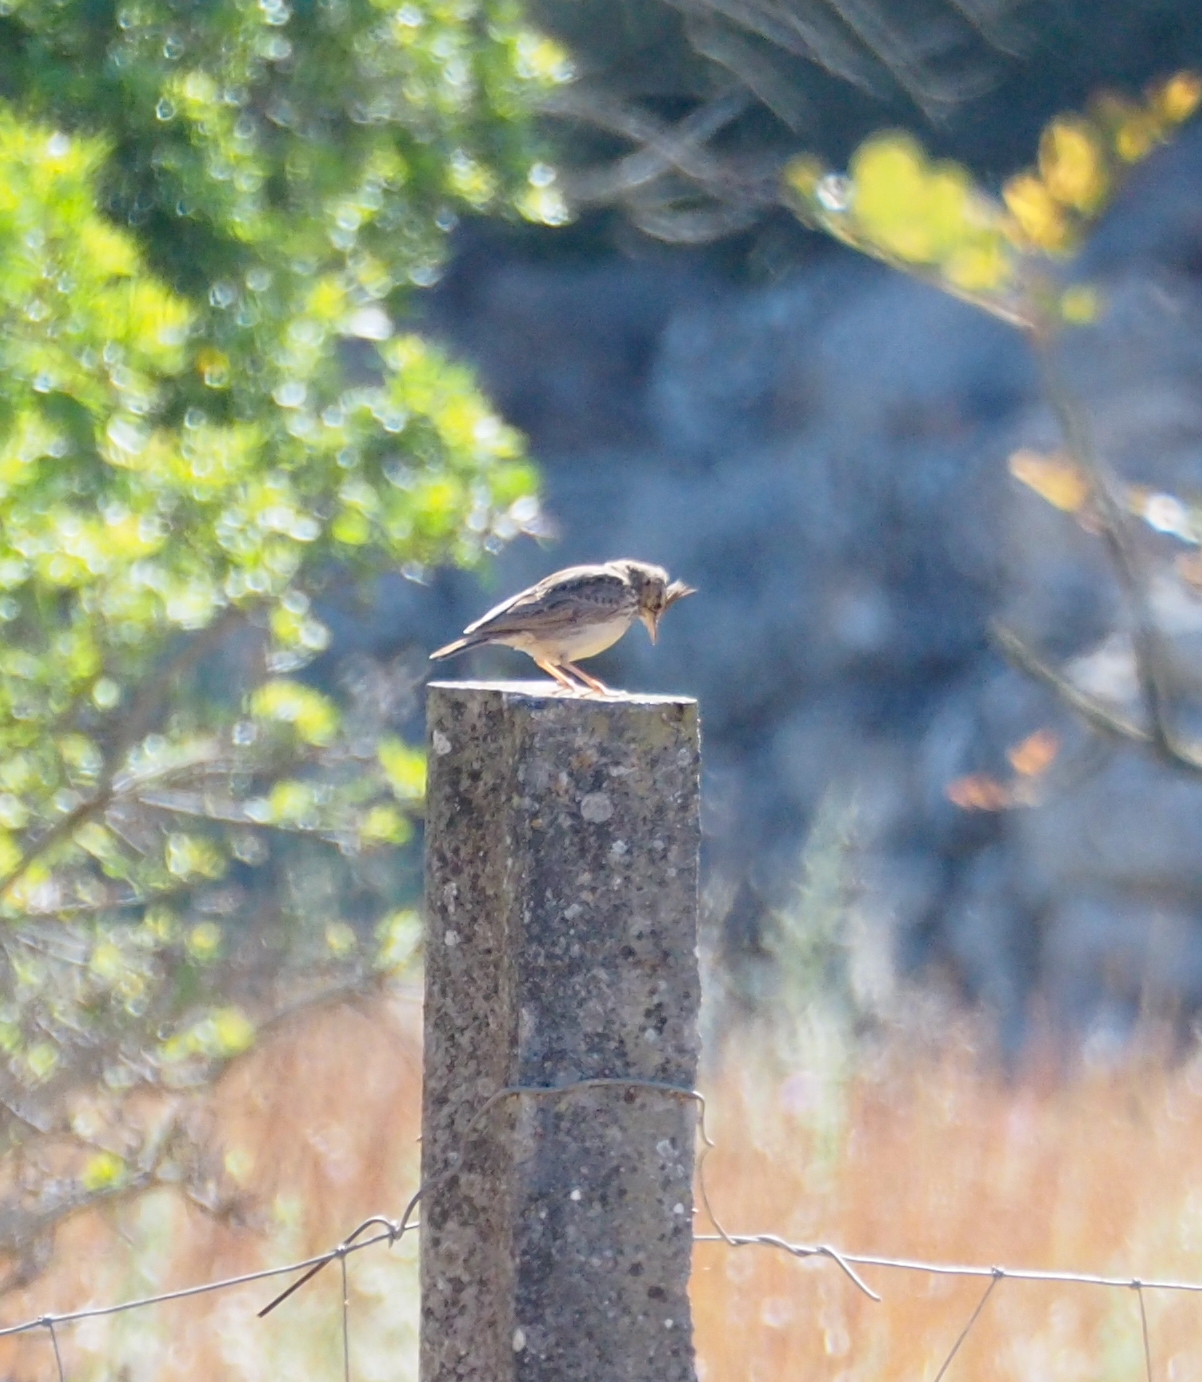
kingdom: Animalia
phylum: Chordata
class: Aves
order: Passeriformes
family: Alaudidae
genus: Galerida
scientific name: Galerida theklae
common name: Thekla lark
